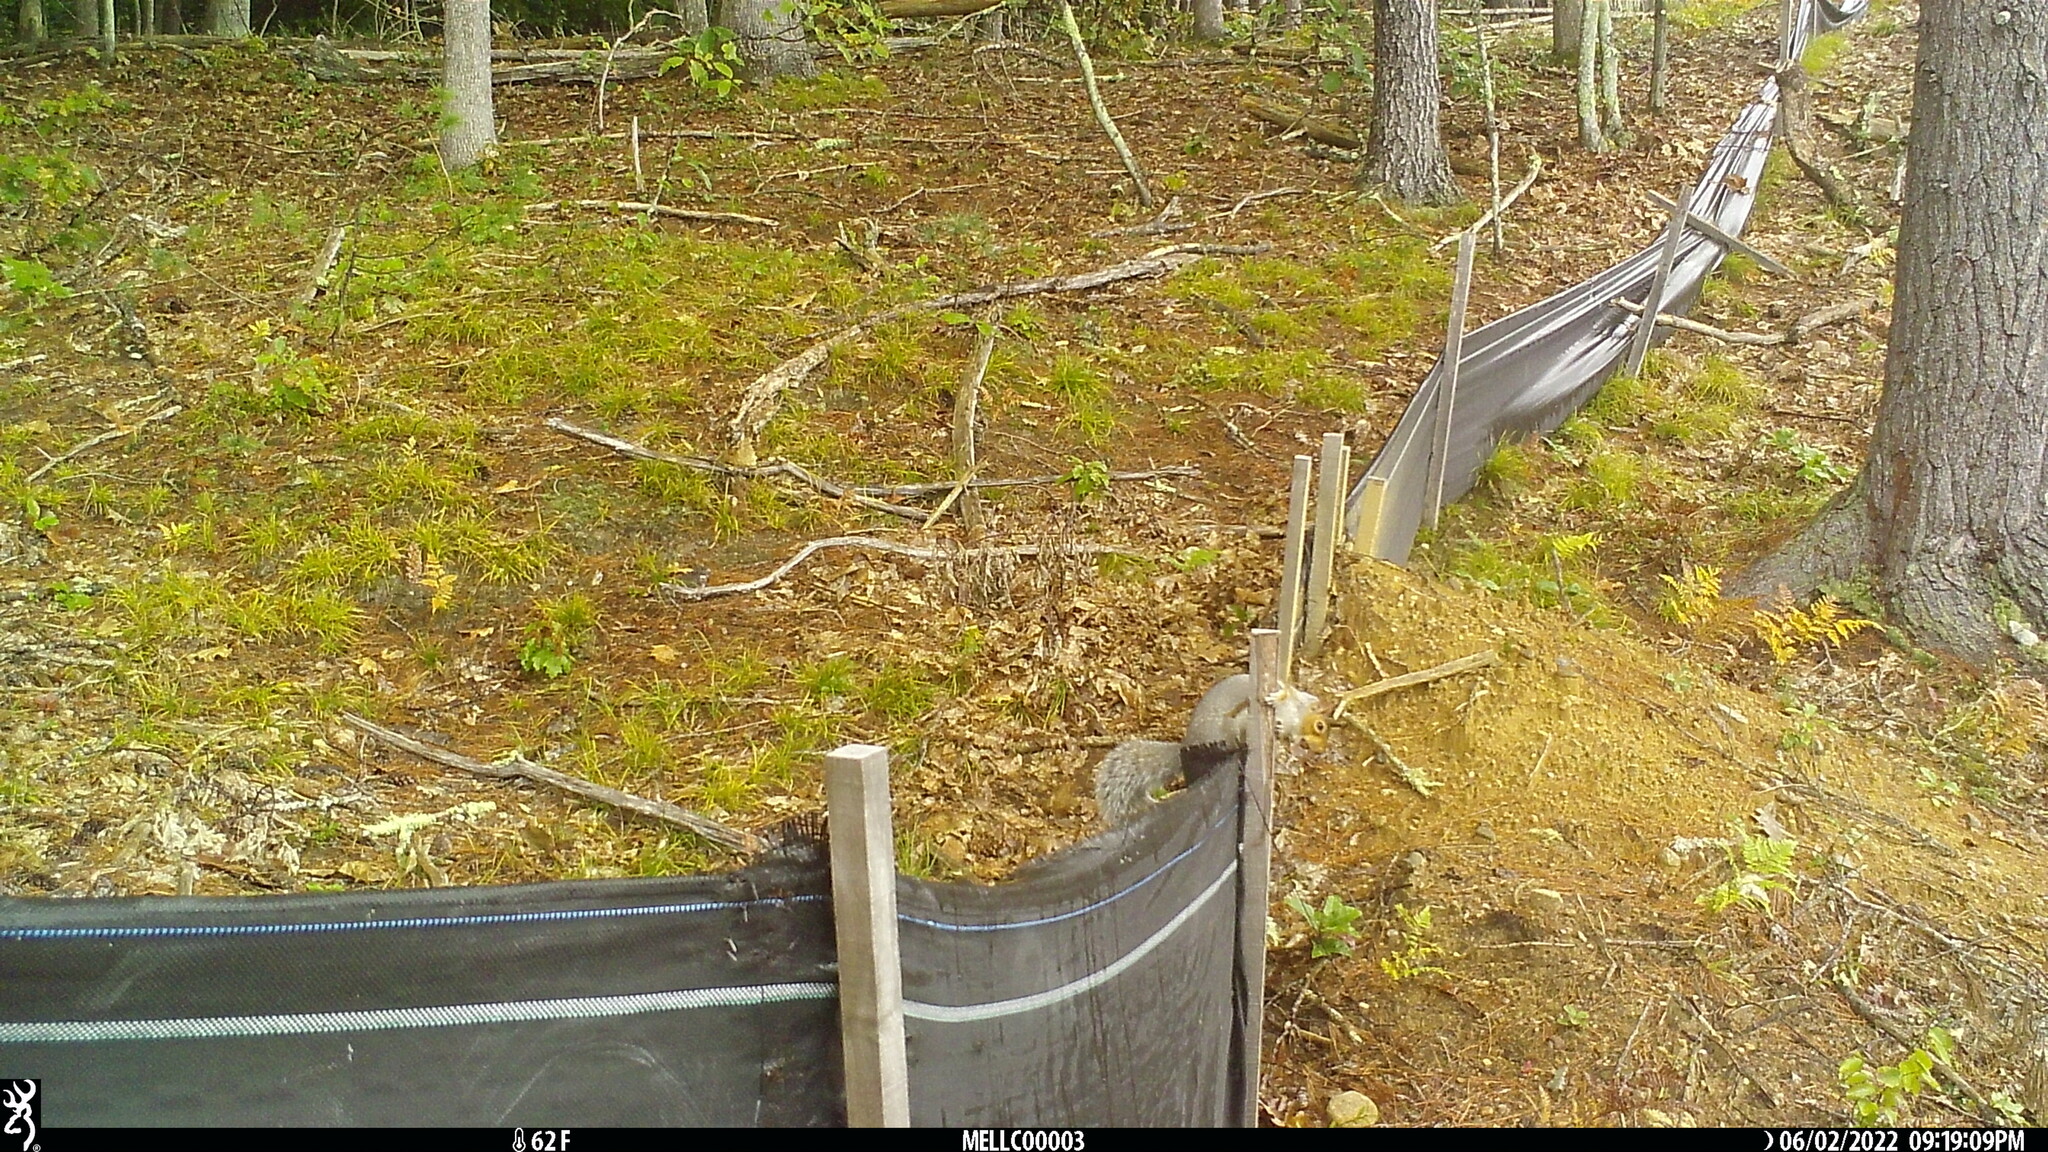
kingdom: Animalia
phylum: Chordata
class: Mammalia
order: Rodentia
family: Sciuridae
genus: Sciurus
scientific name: Sciurus carolinensis
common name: Eastern gray squirrel
